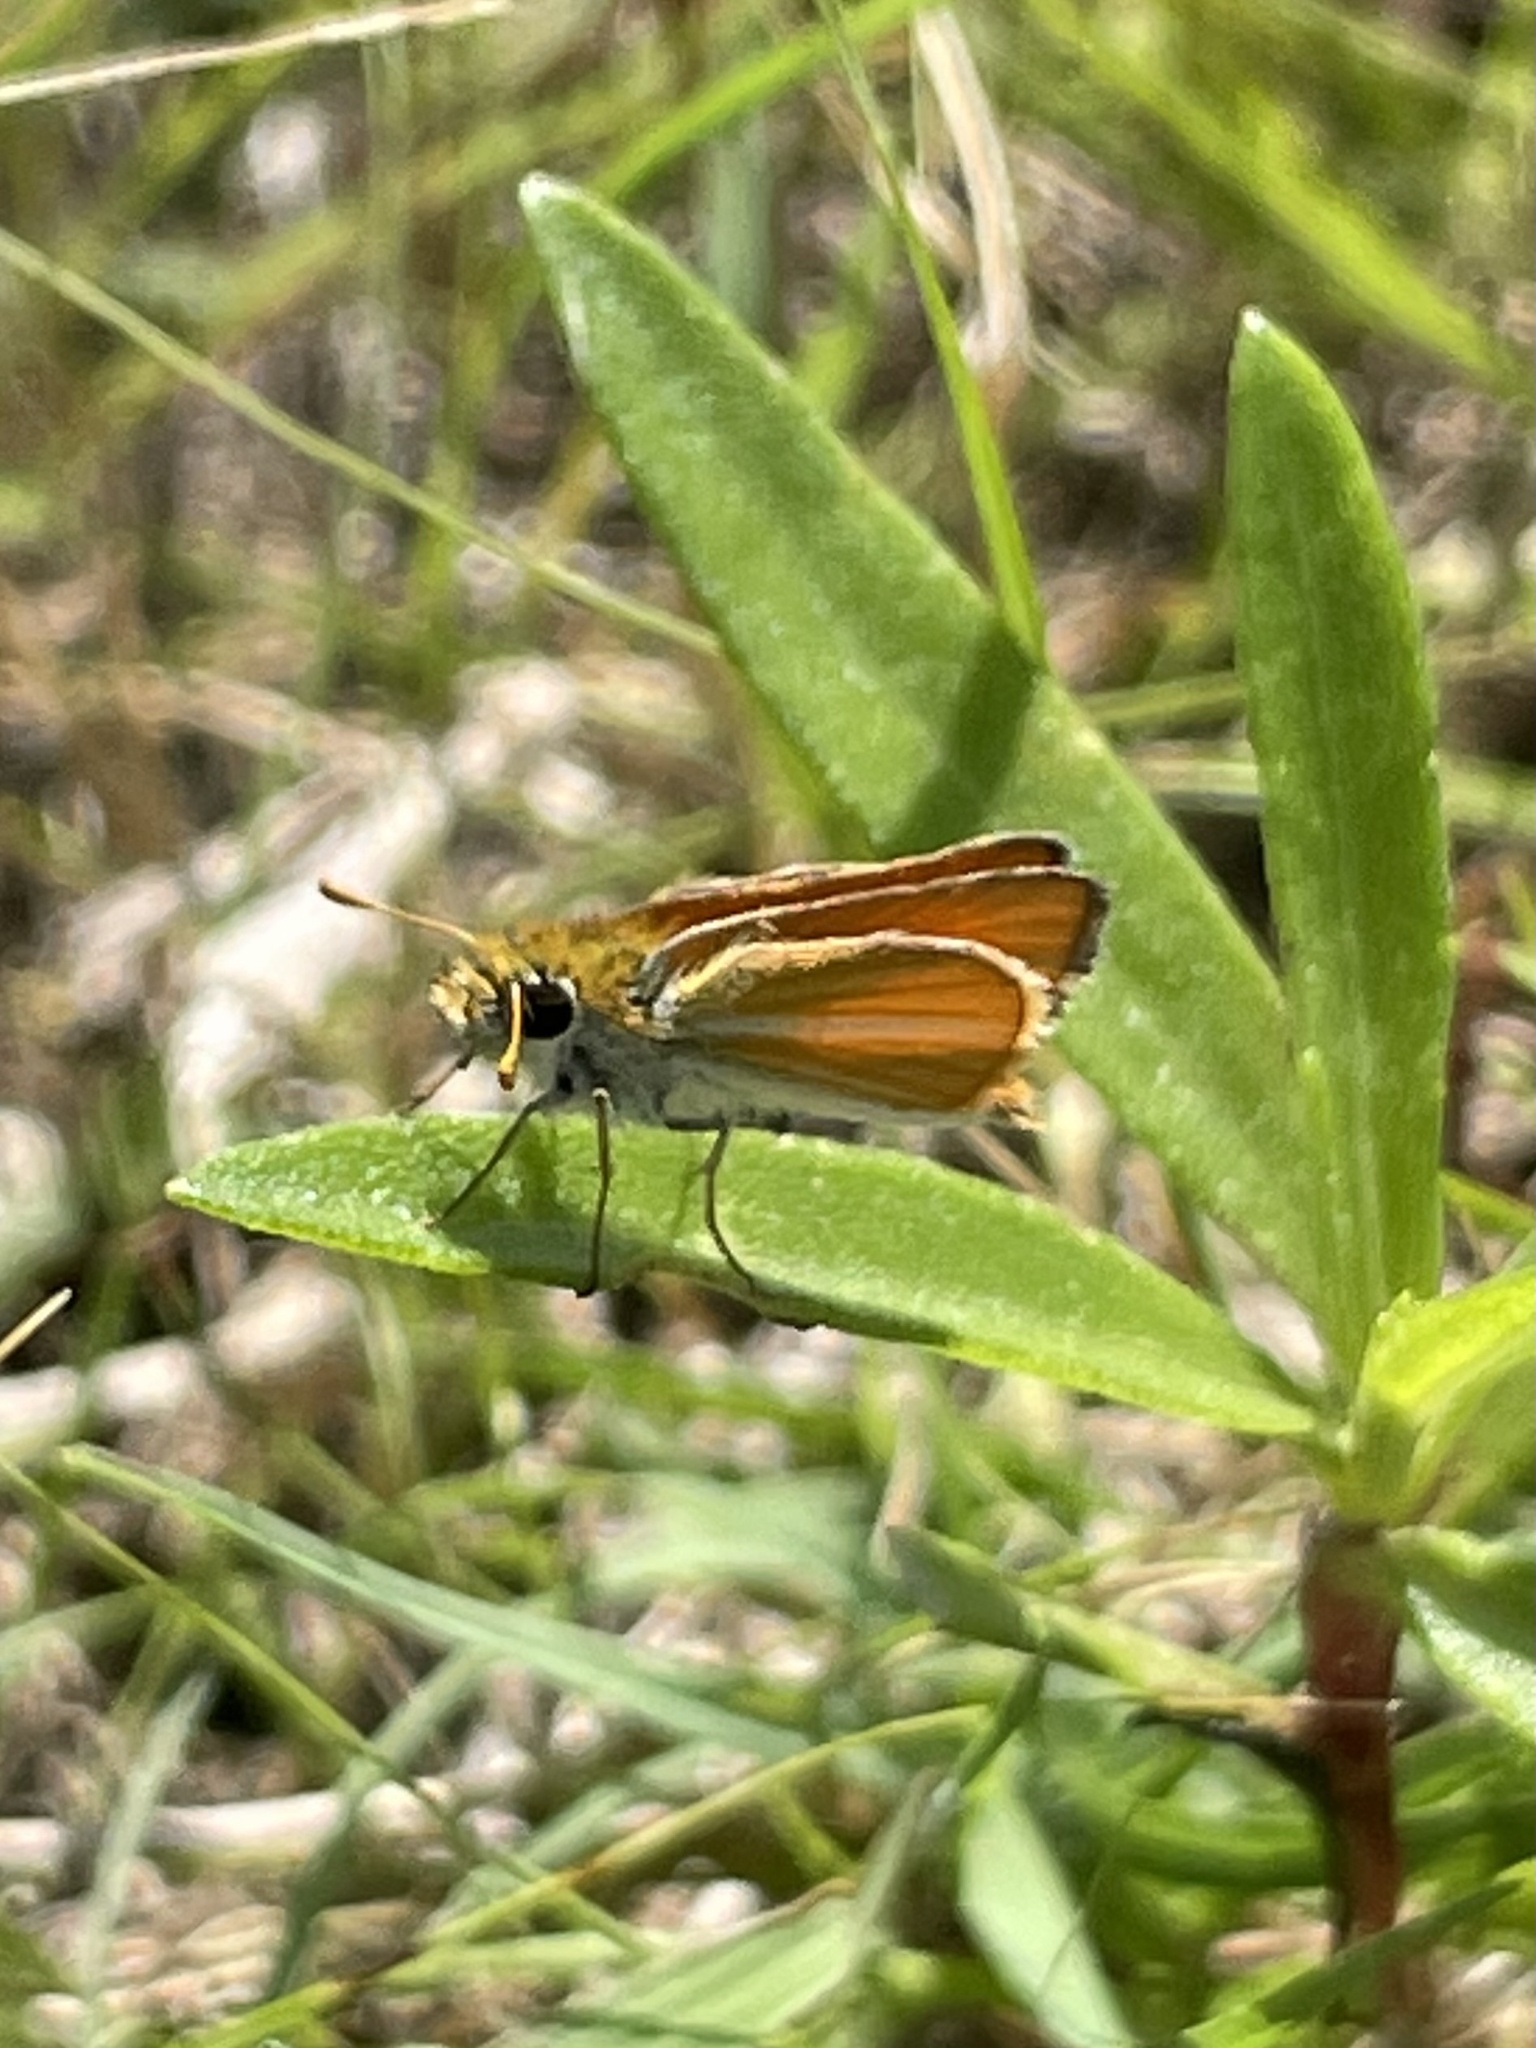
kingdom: Animalia
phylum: Arthropoda
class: Insecta
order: Lepidoptera
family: Hesperiidae
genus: Copaeodes
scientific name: Copaeodes minima
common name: Southern skipperling
